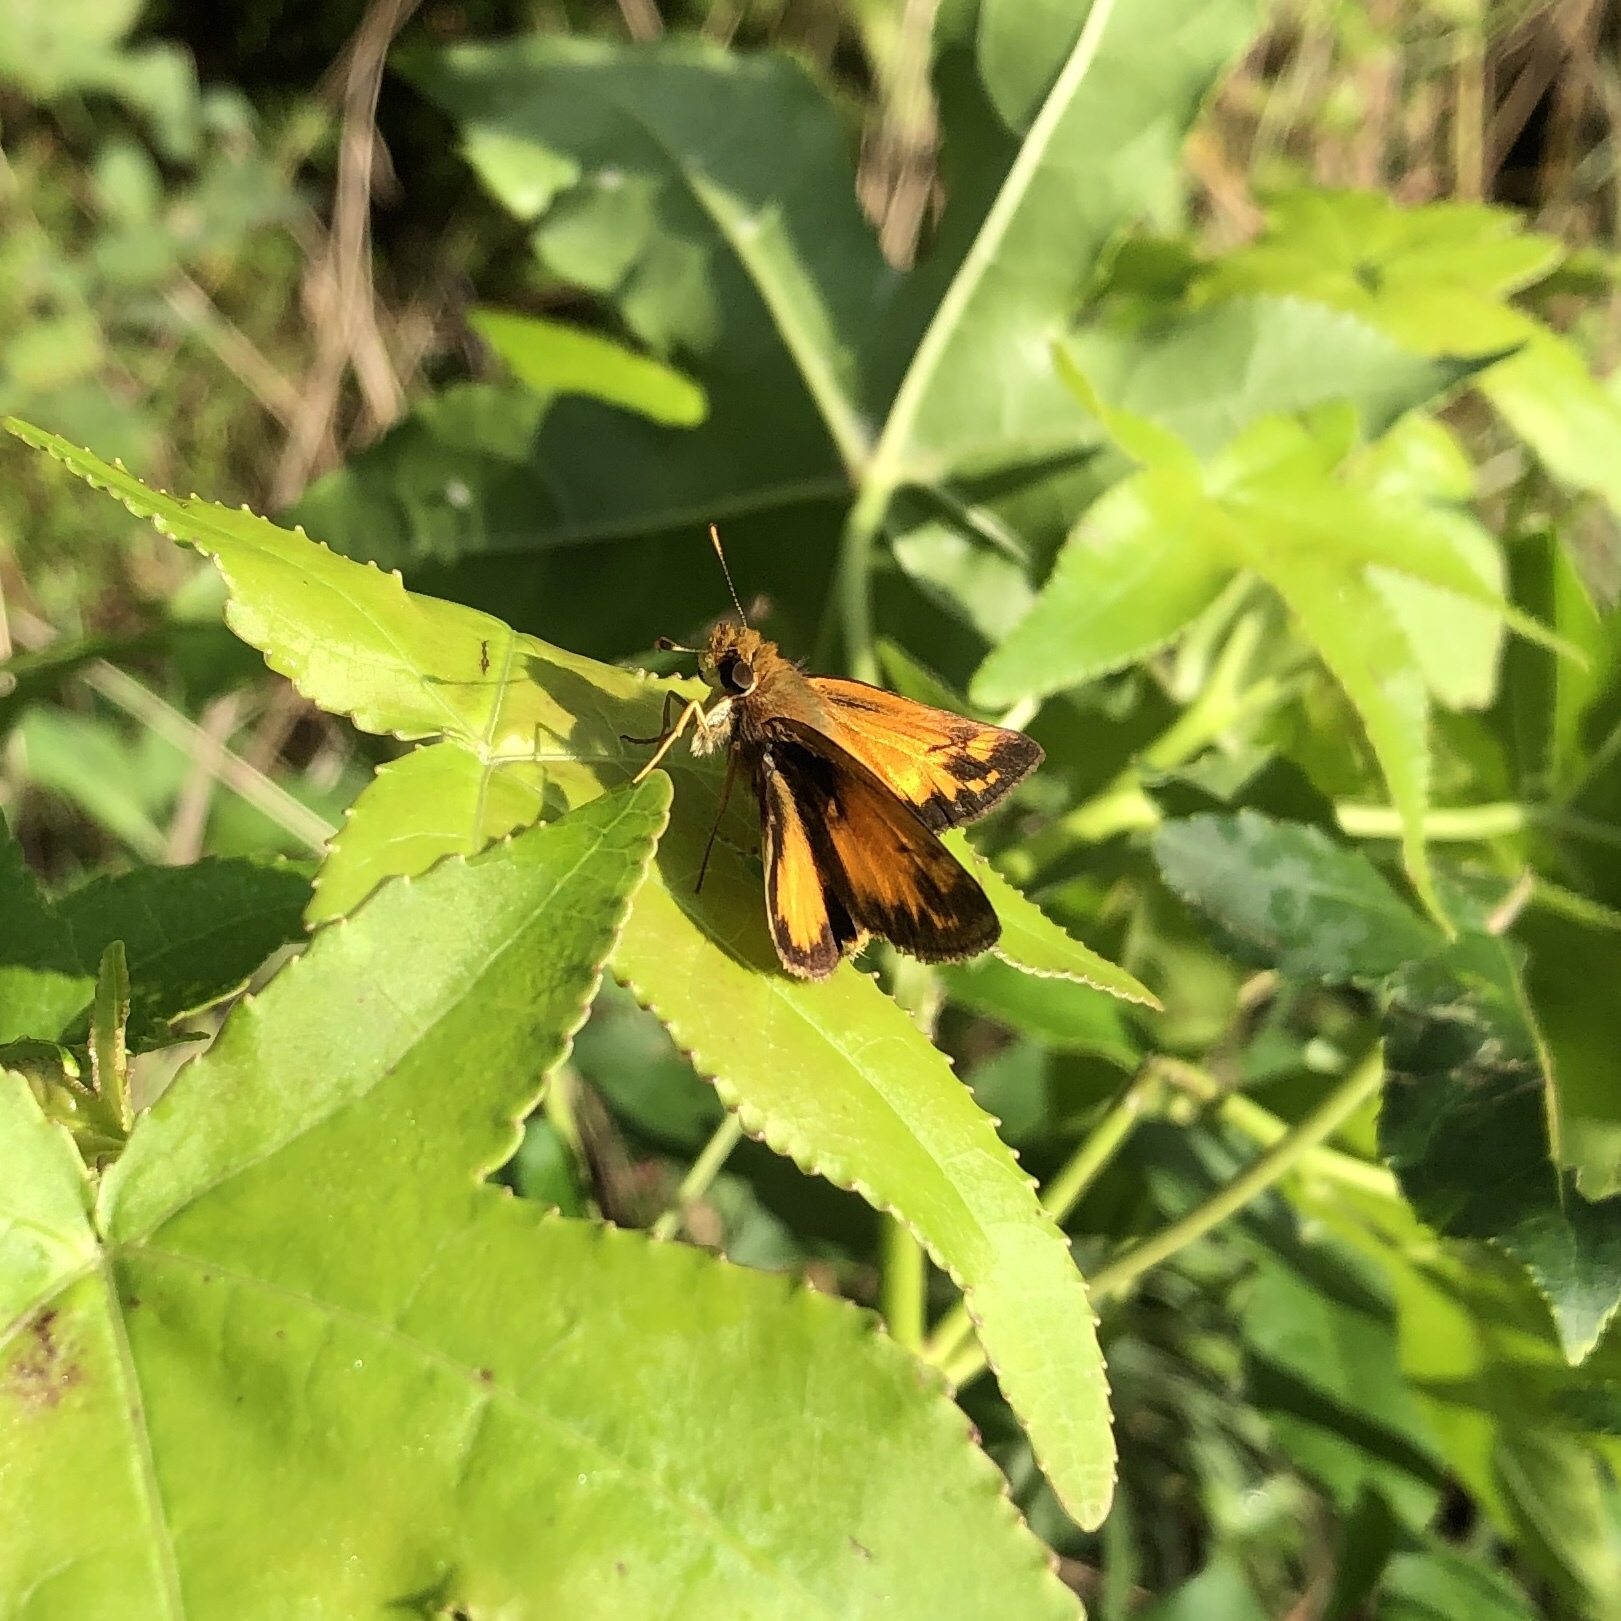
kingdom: Animalia
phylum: Arthropoda
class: Insecta
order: Lepidoptera
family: Hesperiidae
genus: Lon
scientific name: Lon zabulon
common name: Zabulon skipper
